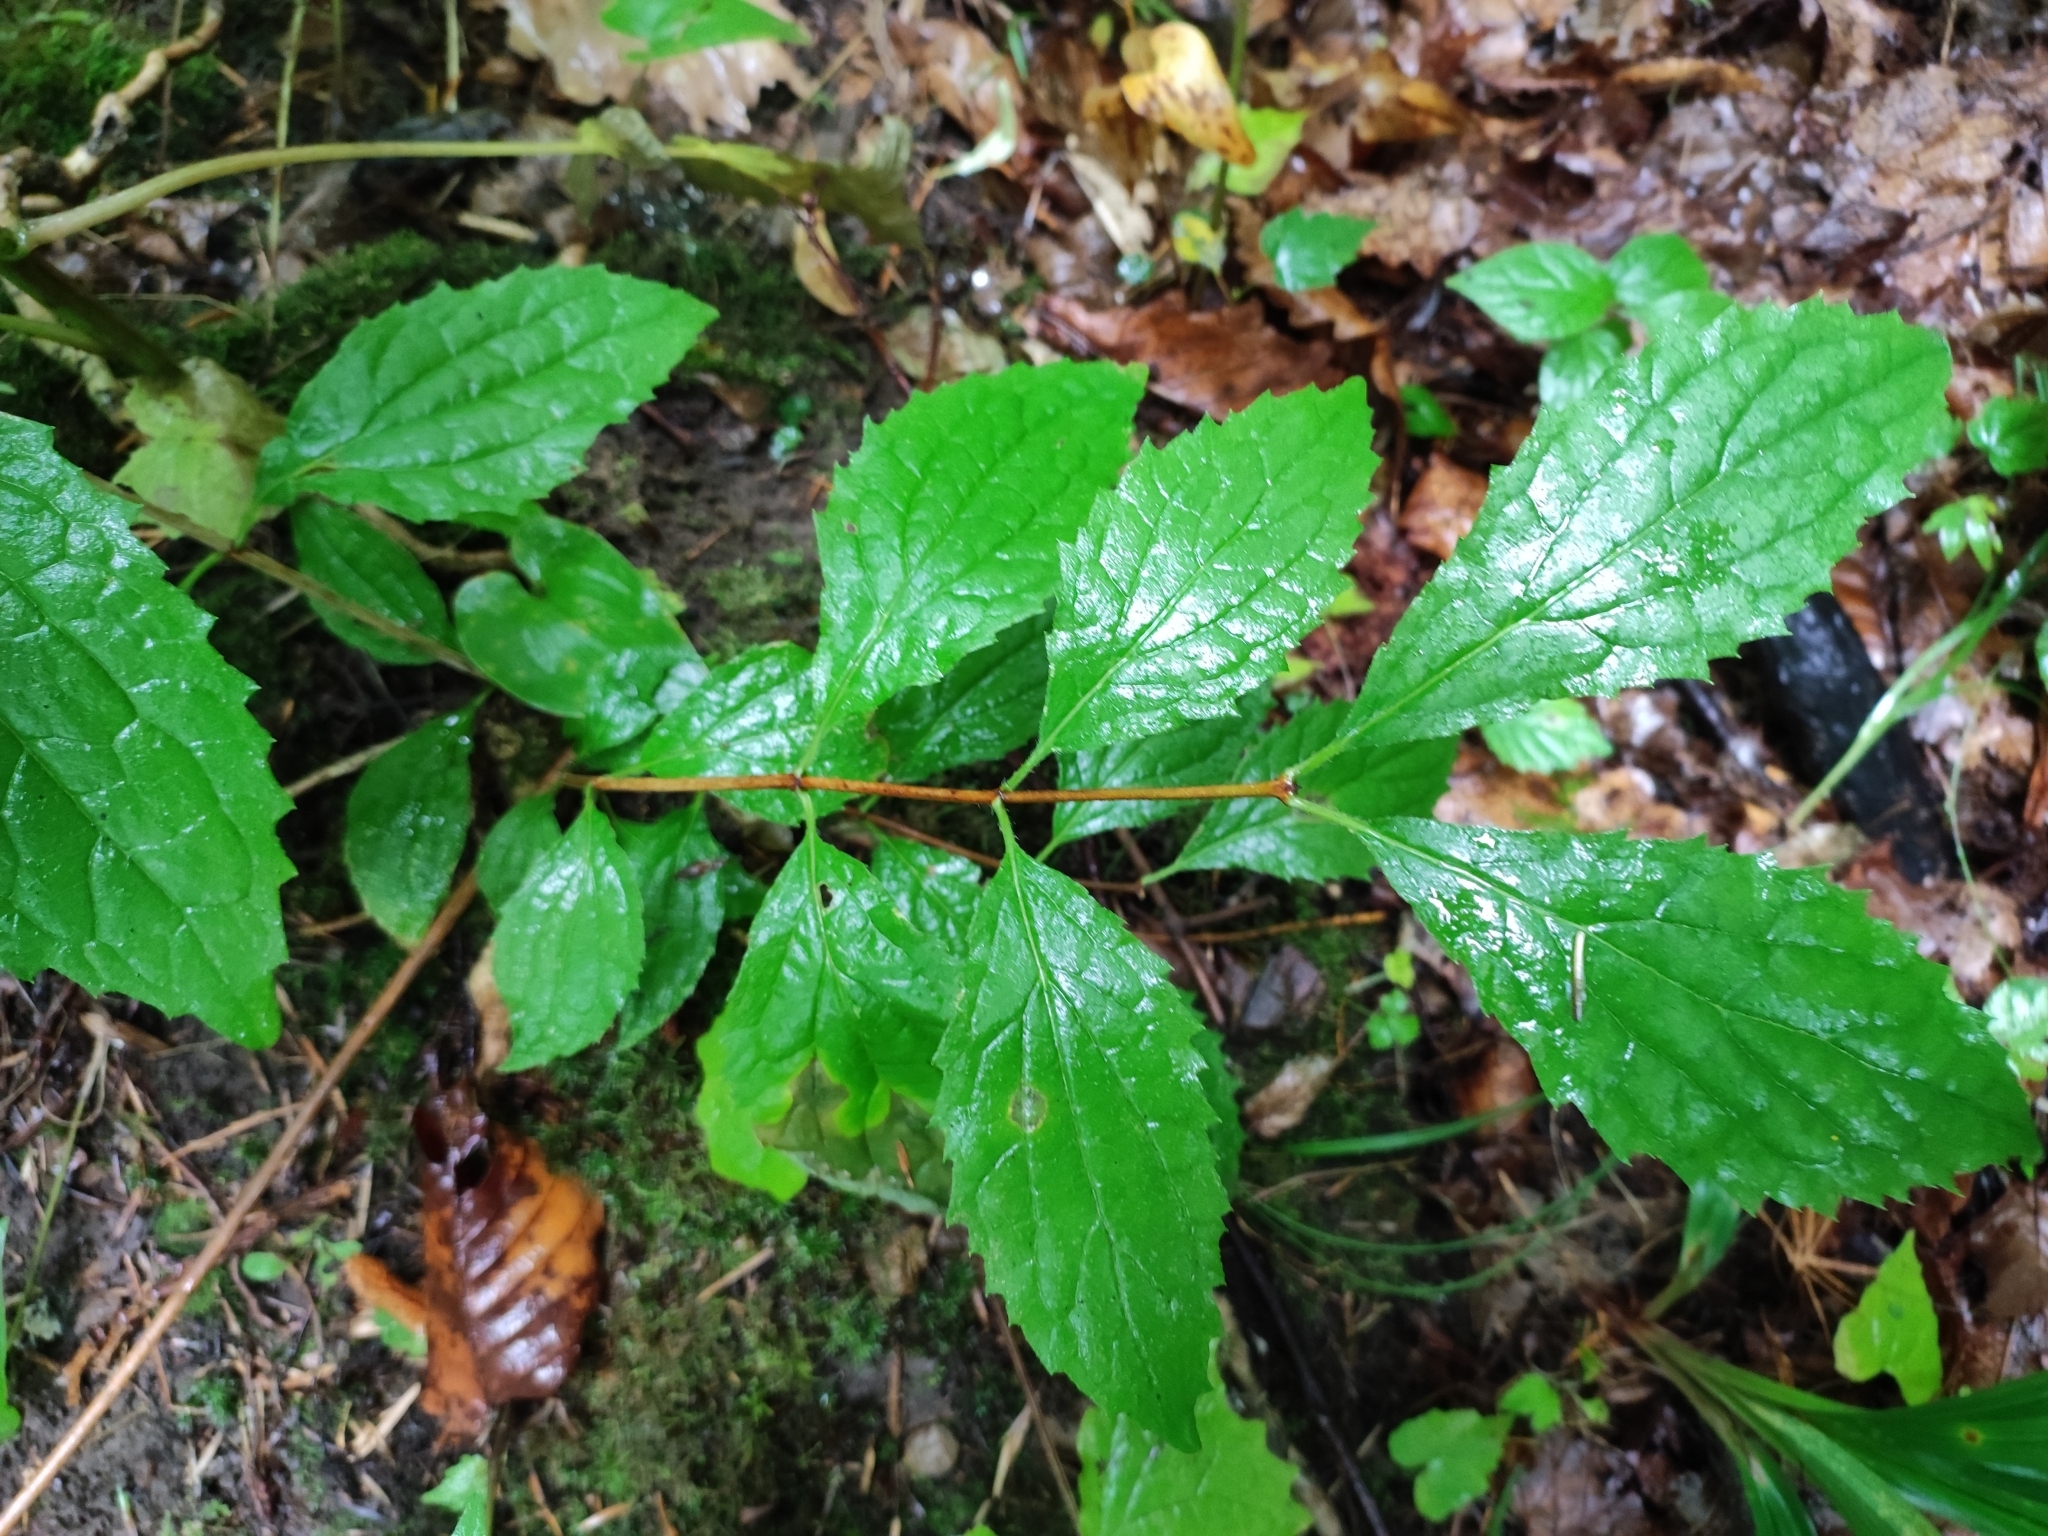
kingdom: Plantae
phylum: Tracheophyta
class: Magnoliopsida
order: Cornales
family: Hydrangeaceae
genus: Philadelphus
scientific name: Philadelphus tenuifolius
